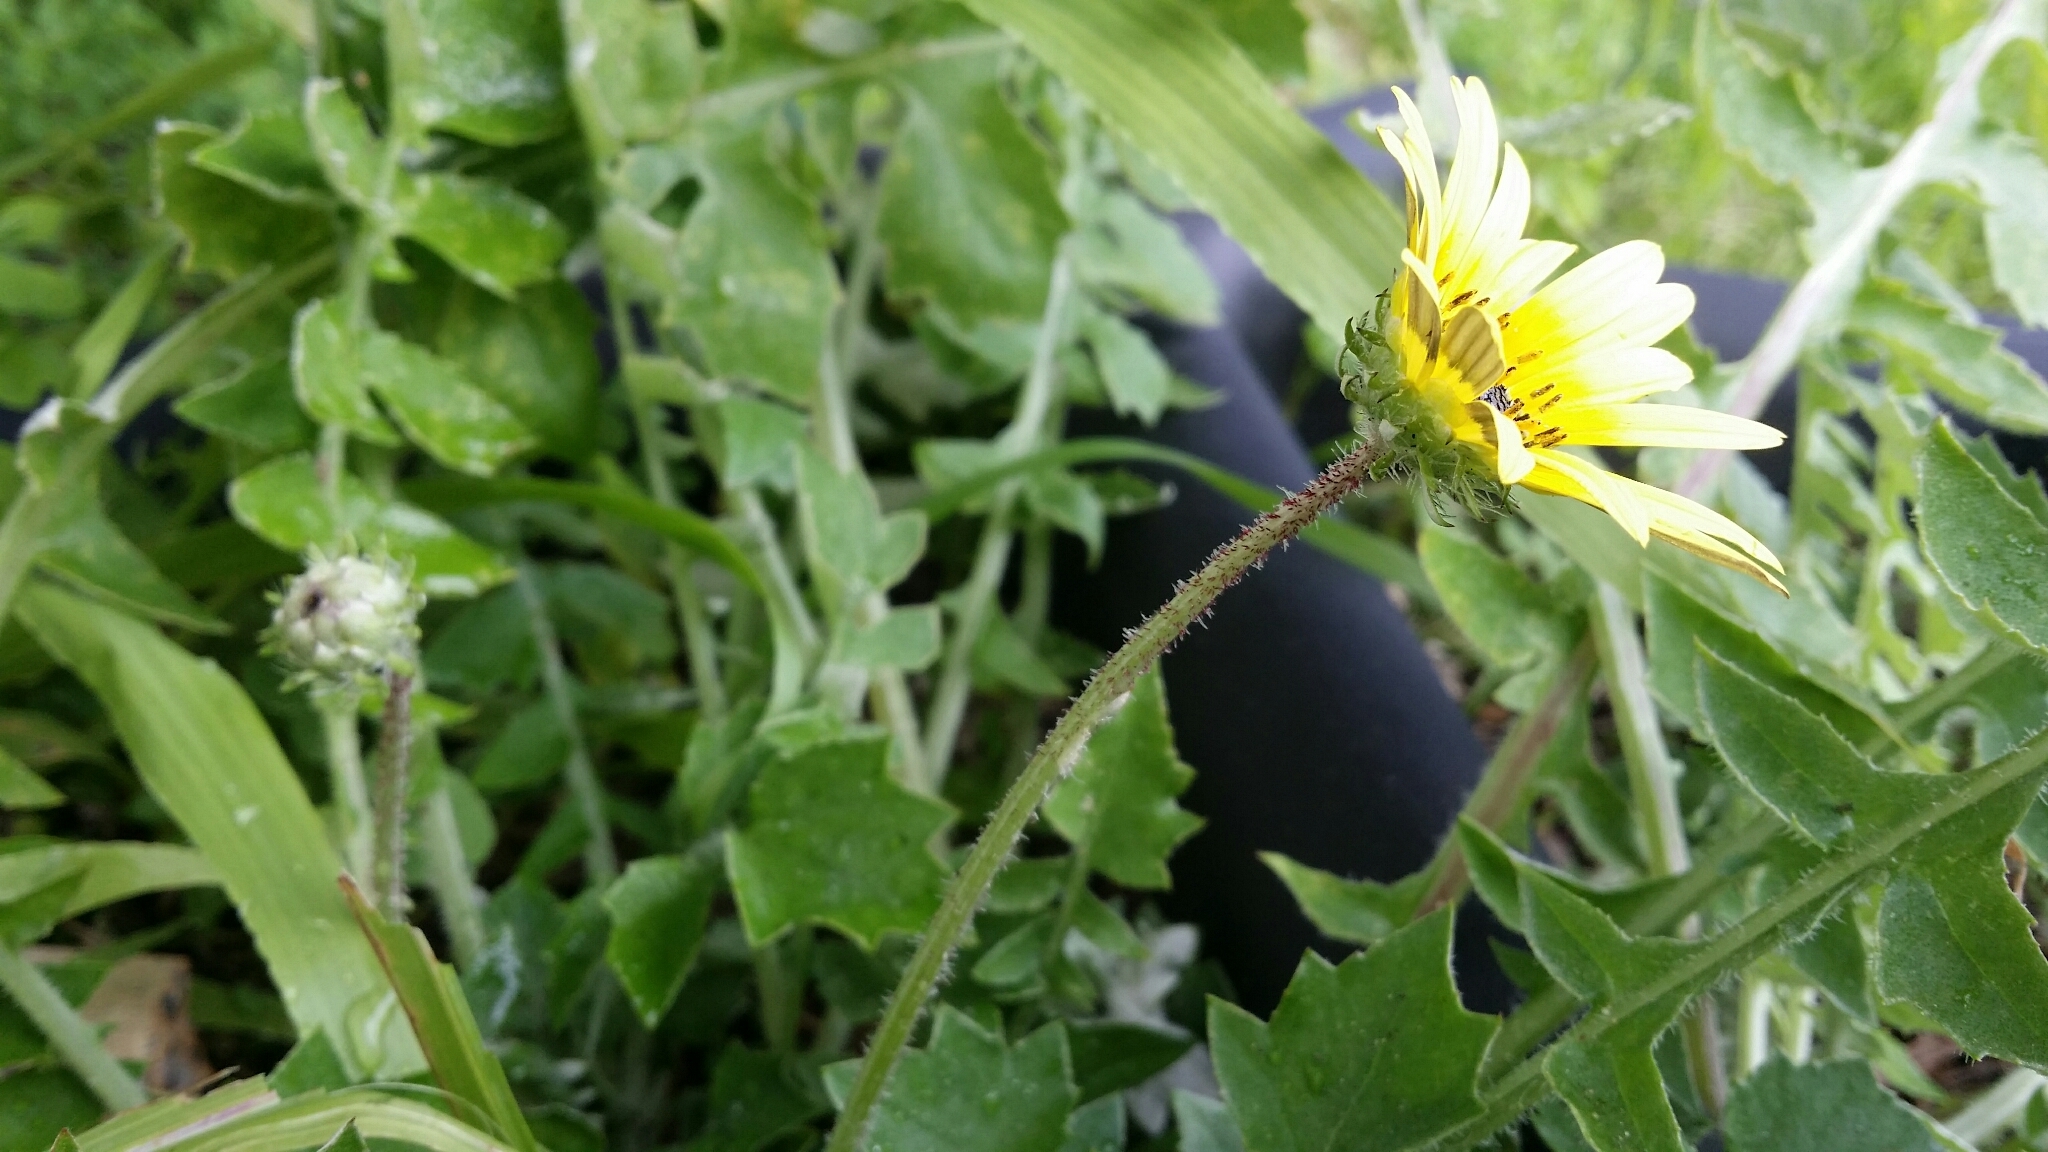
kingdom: Plantae
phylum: Tracheophyta
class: Magnoliopsida
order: Asterales
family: Asteraceae
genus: Arctotheca
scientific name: Arctotheca calendula
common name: Capeweed
